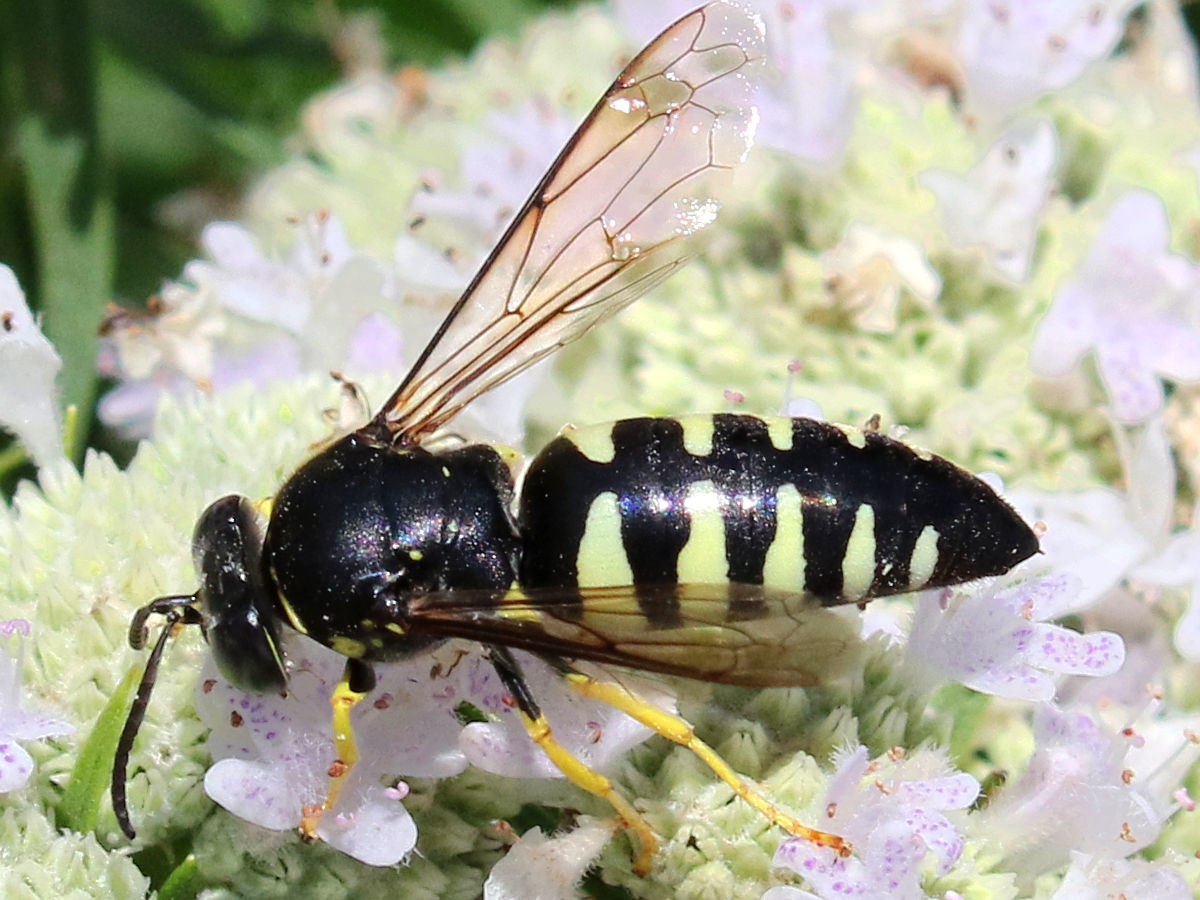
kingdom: Animalia
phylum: Arthropoda
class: Insecta
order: Hymenoptera
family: Crabronidae
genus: Bicyrtes
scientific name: Bicyrtes quadrifasciatus
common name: Four-banded stink bug hunter wasp
